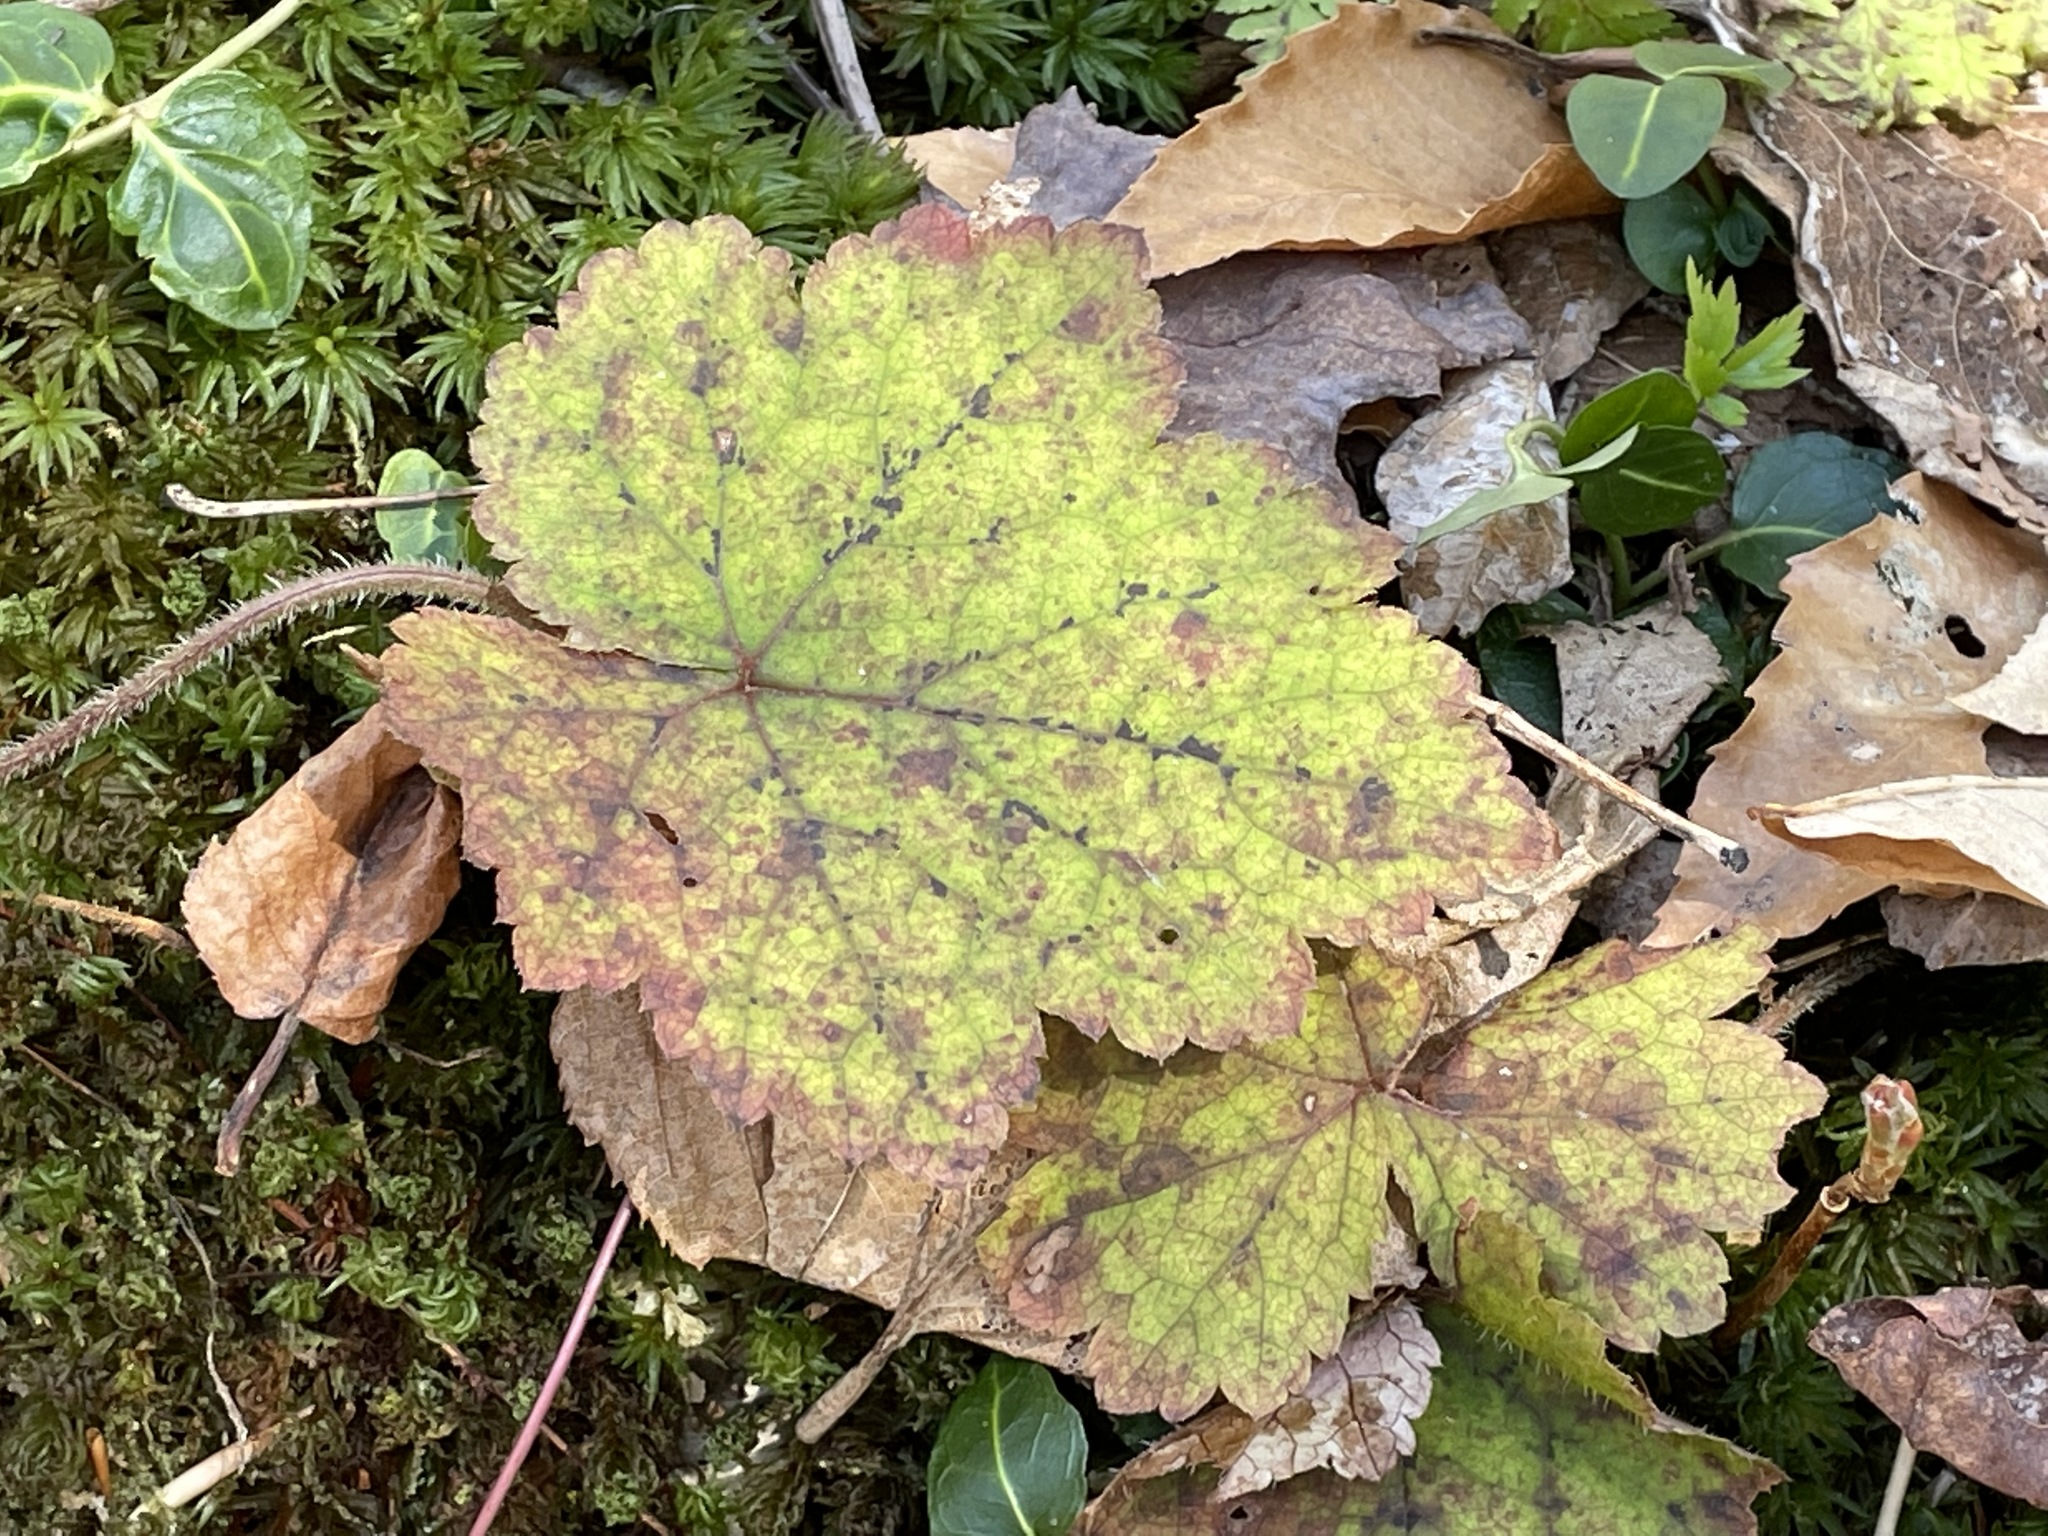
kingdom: Plantae
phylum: Tracheophyta
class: Magnoliopsida
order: Saxifragales
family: Saxifragaceae
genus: Tiarella
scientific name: Tiarella stolonifera
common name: Stoloniferous foamflower
